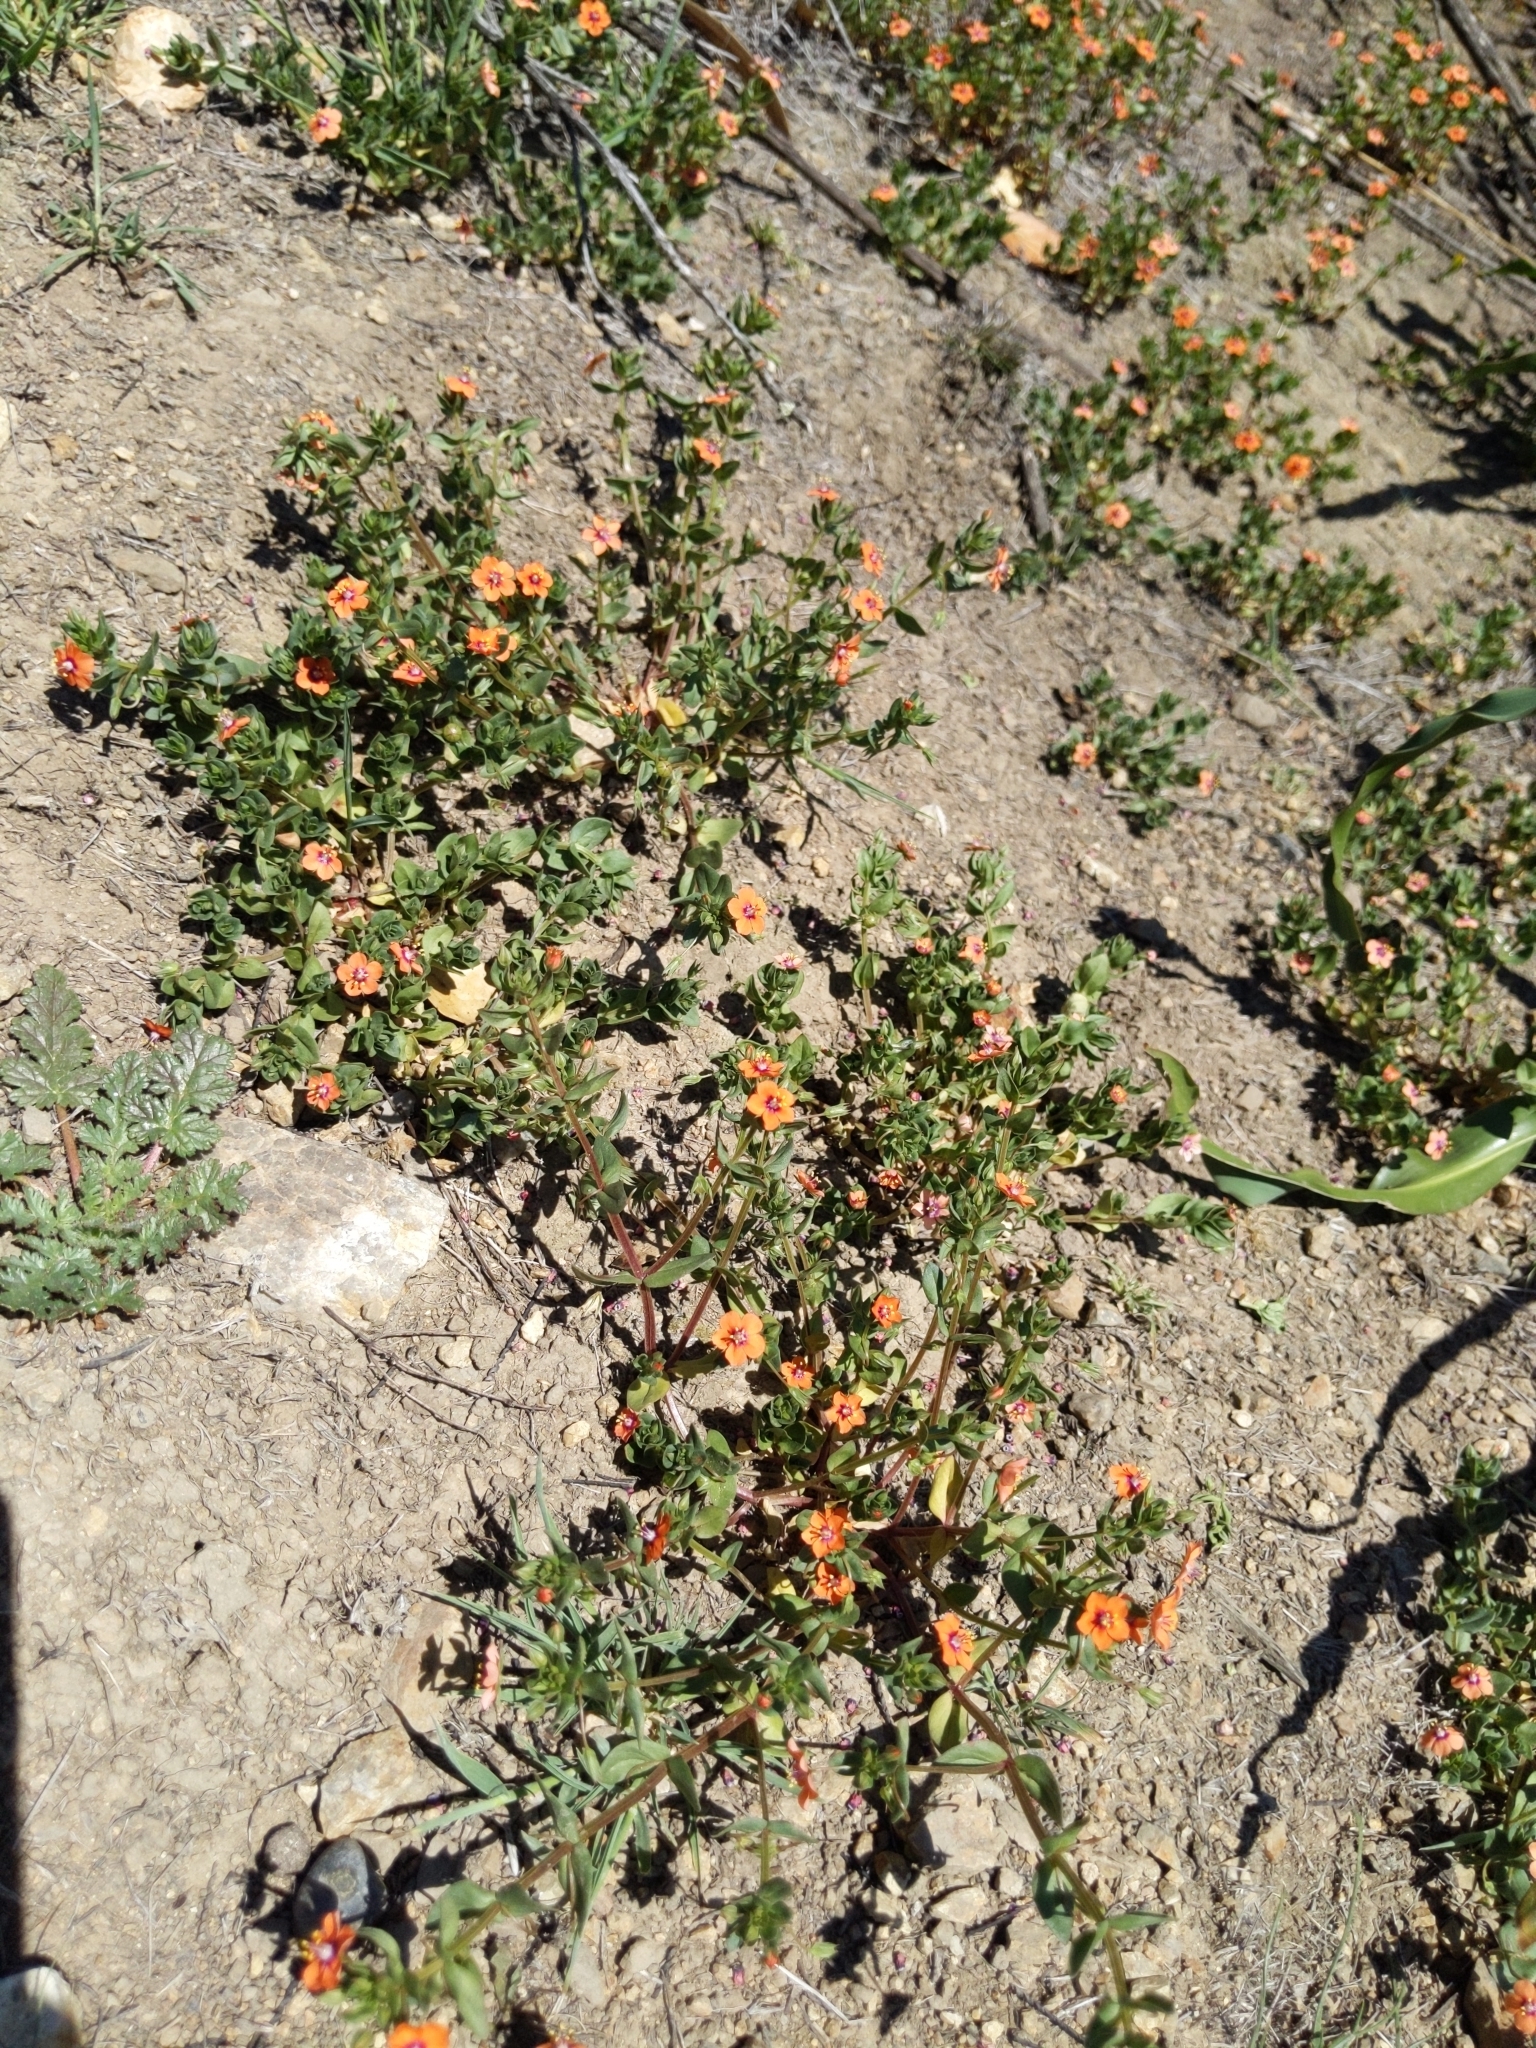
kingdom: Plantae
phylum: Tracheophyta
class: Magnoliopsida
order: Ericales
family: Primulaceae
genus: Lysimachia
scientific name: Lysimachia arvensis
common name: Scarlet pimpernel
